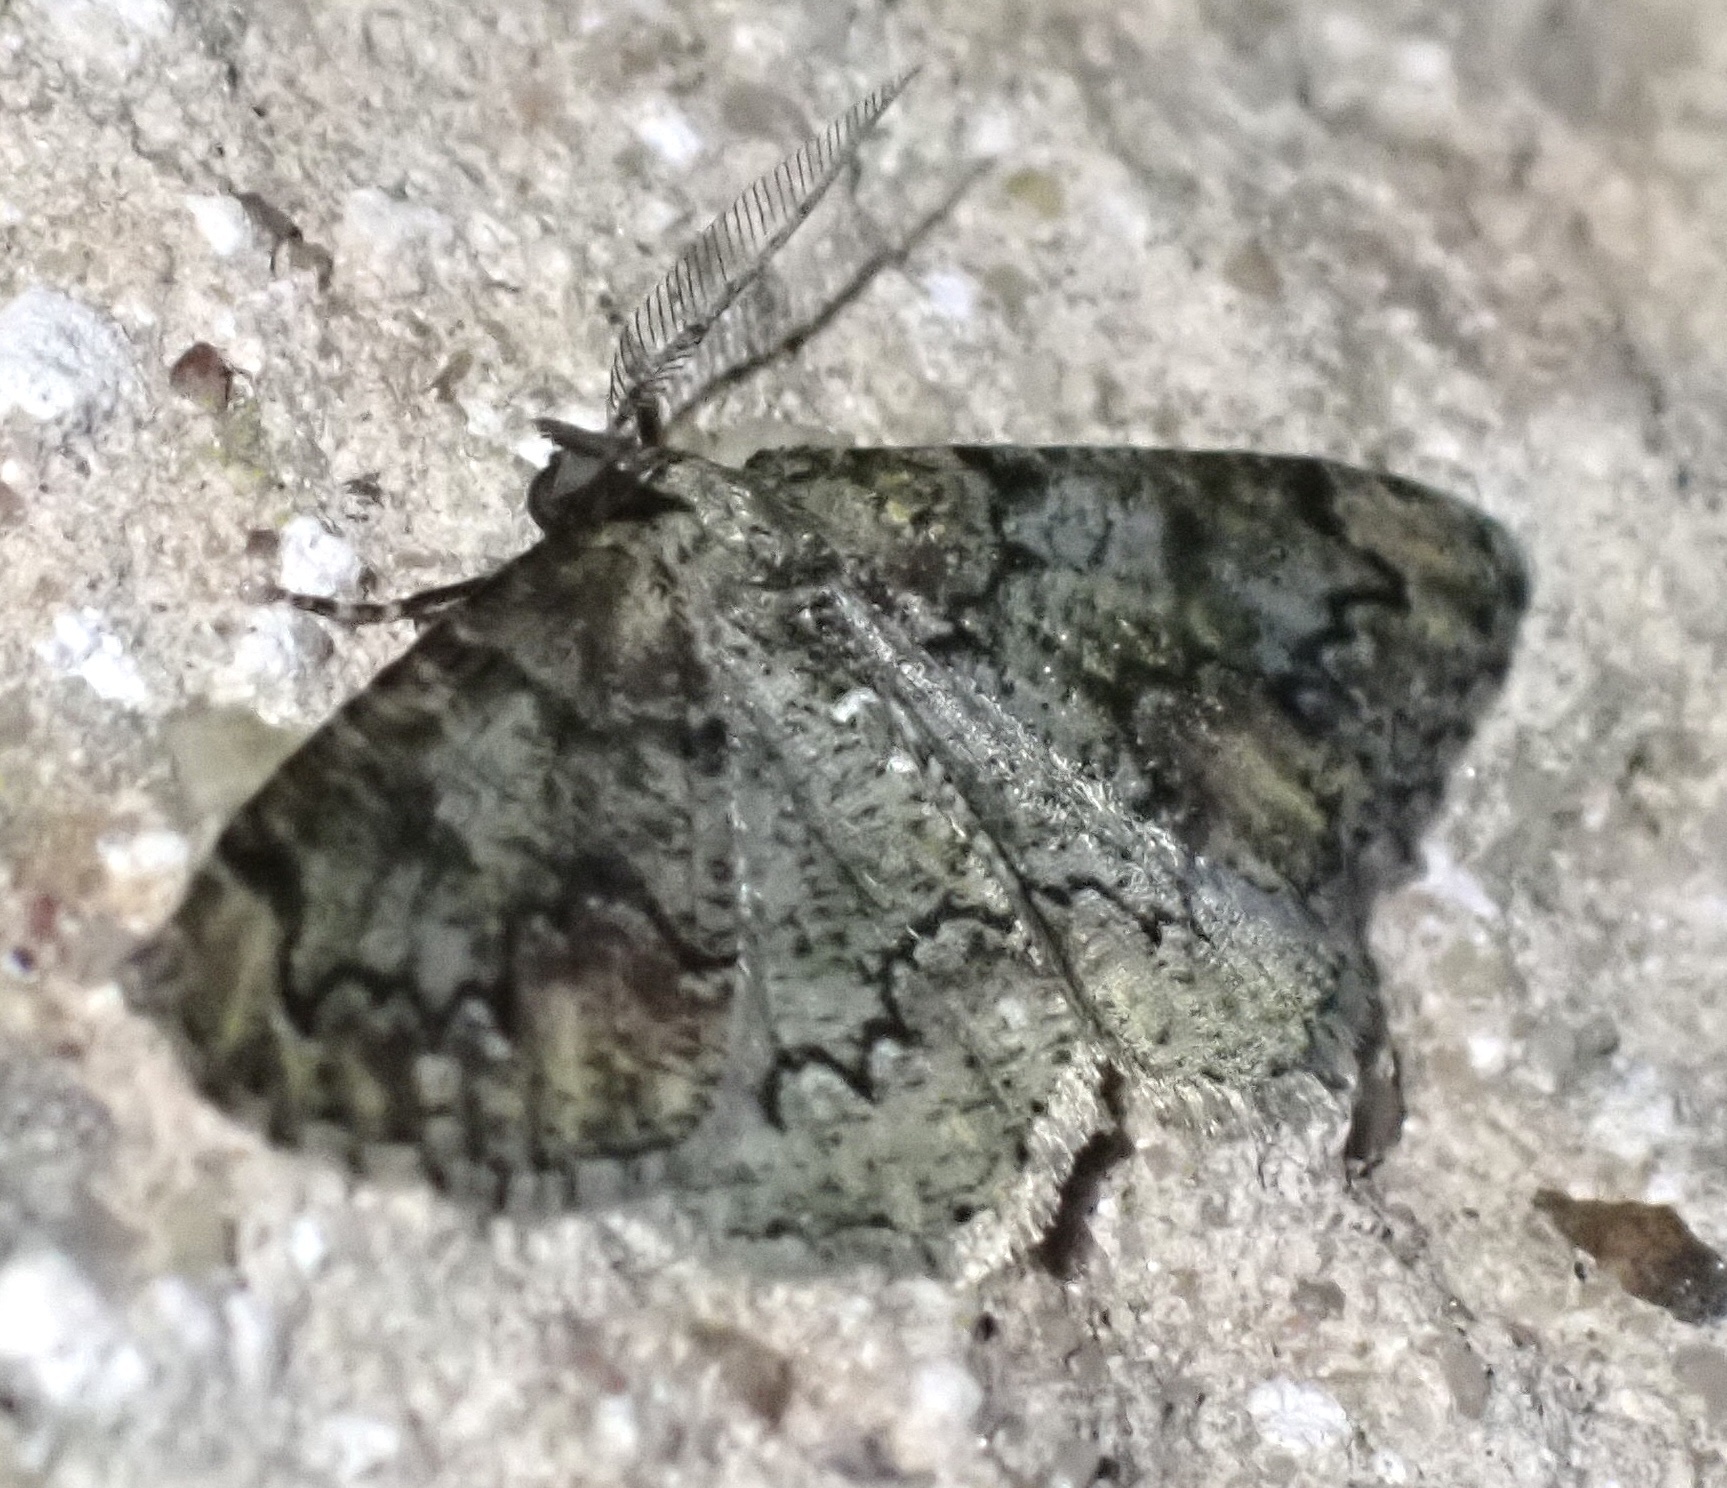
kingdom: Animalia
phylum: Arthropoda
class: Insecta
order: Lepidoptera
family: Geometridae
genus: Cleorodes
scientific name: Cleorodes lichenaria
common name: Brussels lace
